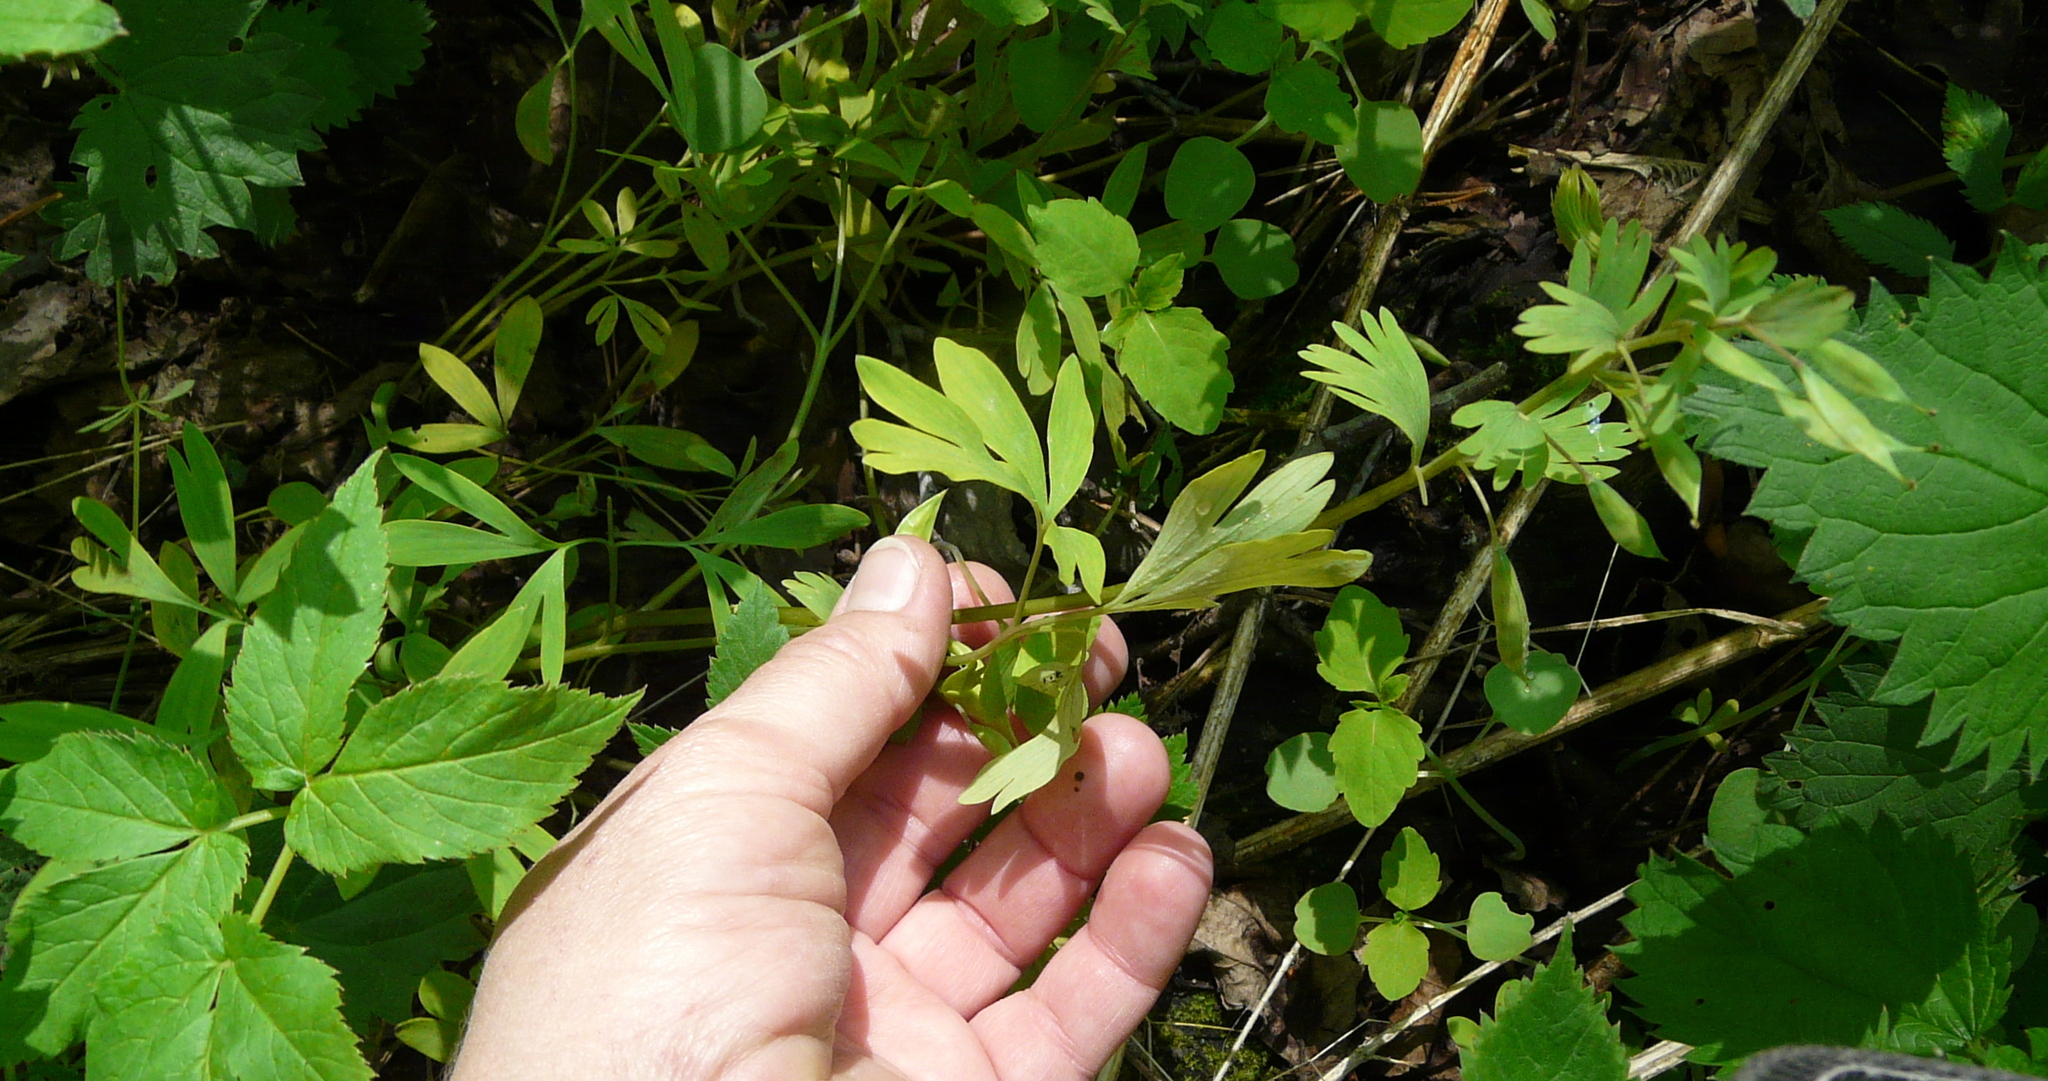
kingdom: Plantae
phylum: Tracheophyta
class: Magnoliopsida
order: Ranunculales
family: Papaveraceae
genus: Corydalis
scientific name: Corydalis solida
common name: Bird-in-a-bush
